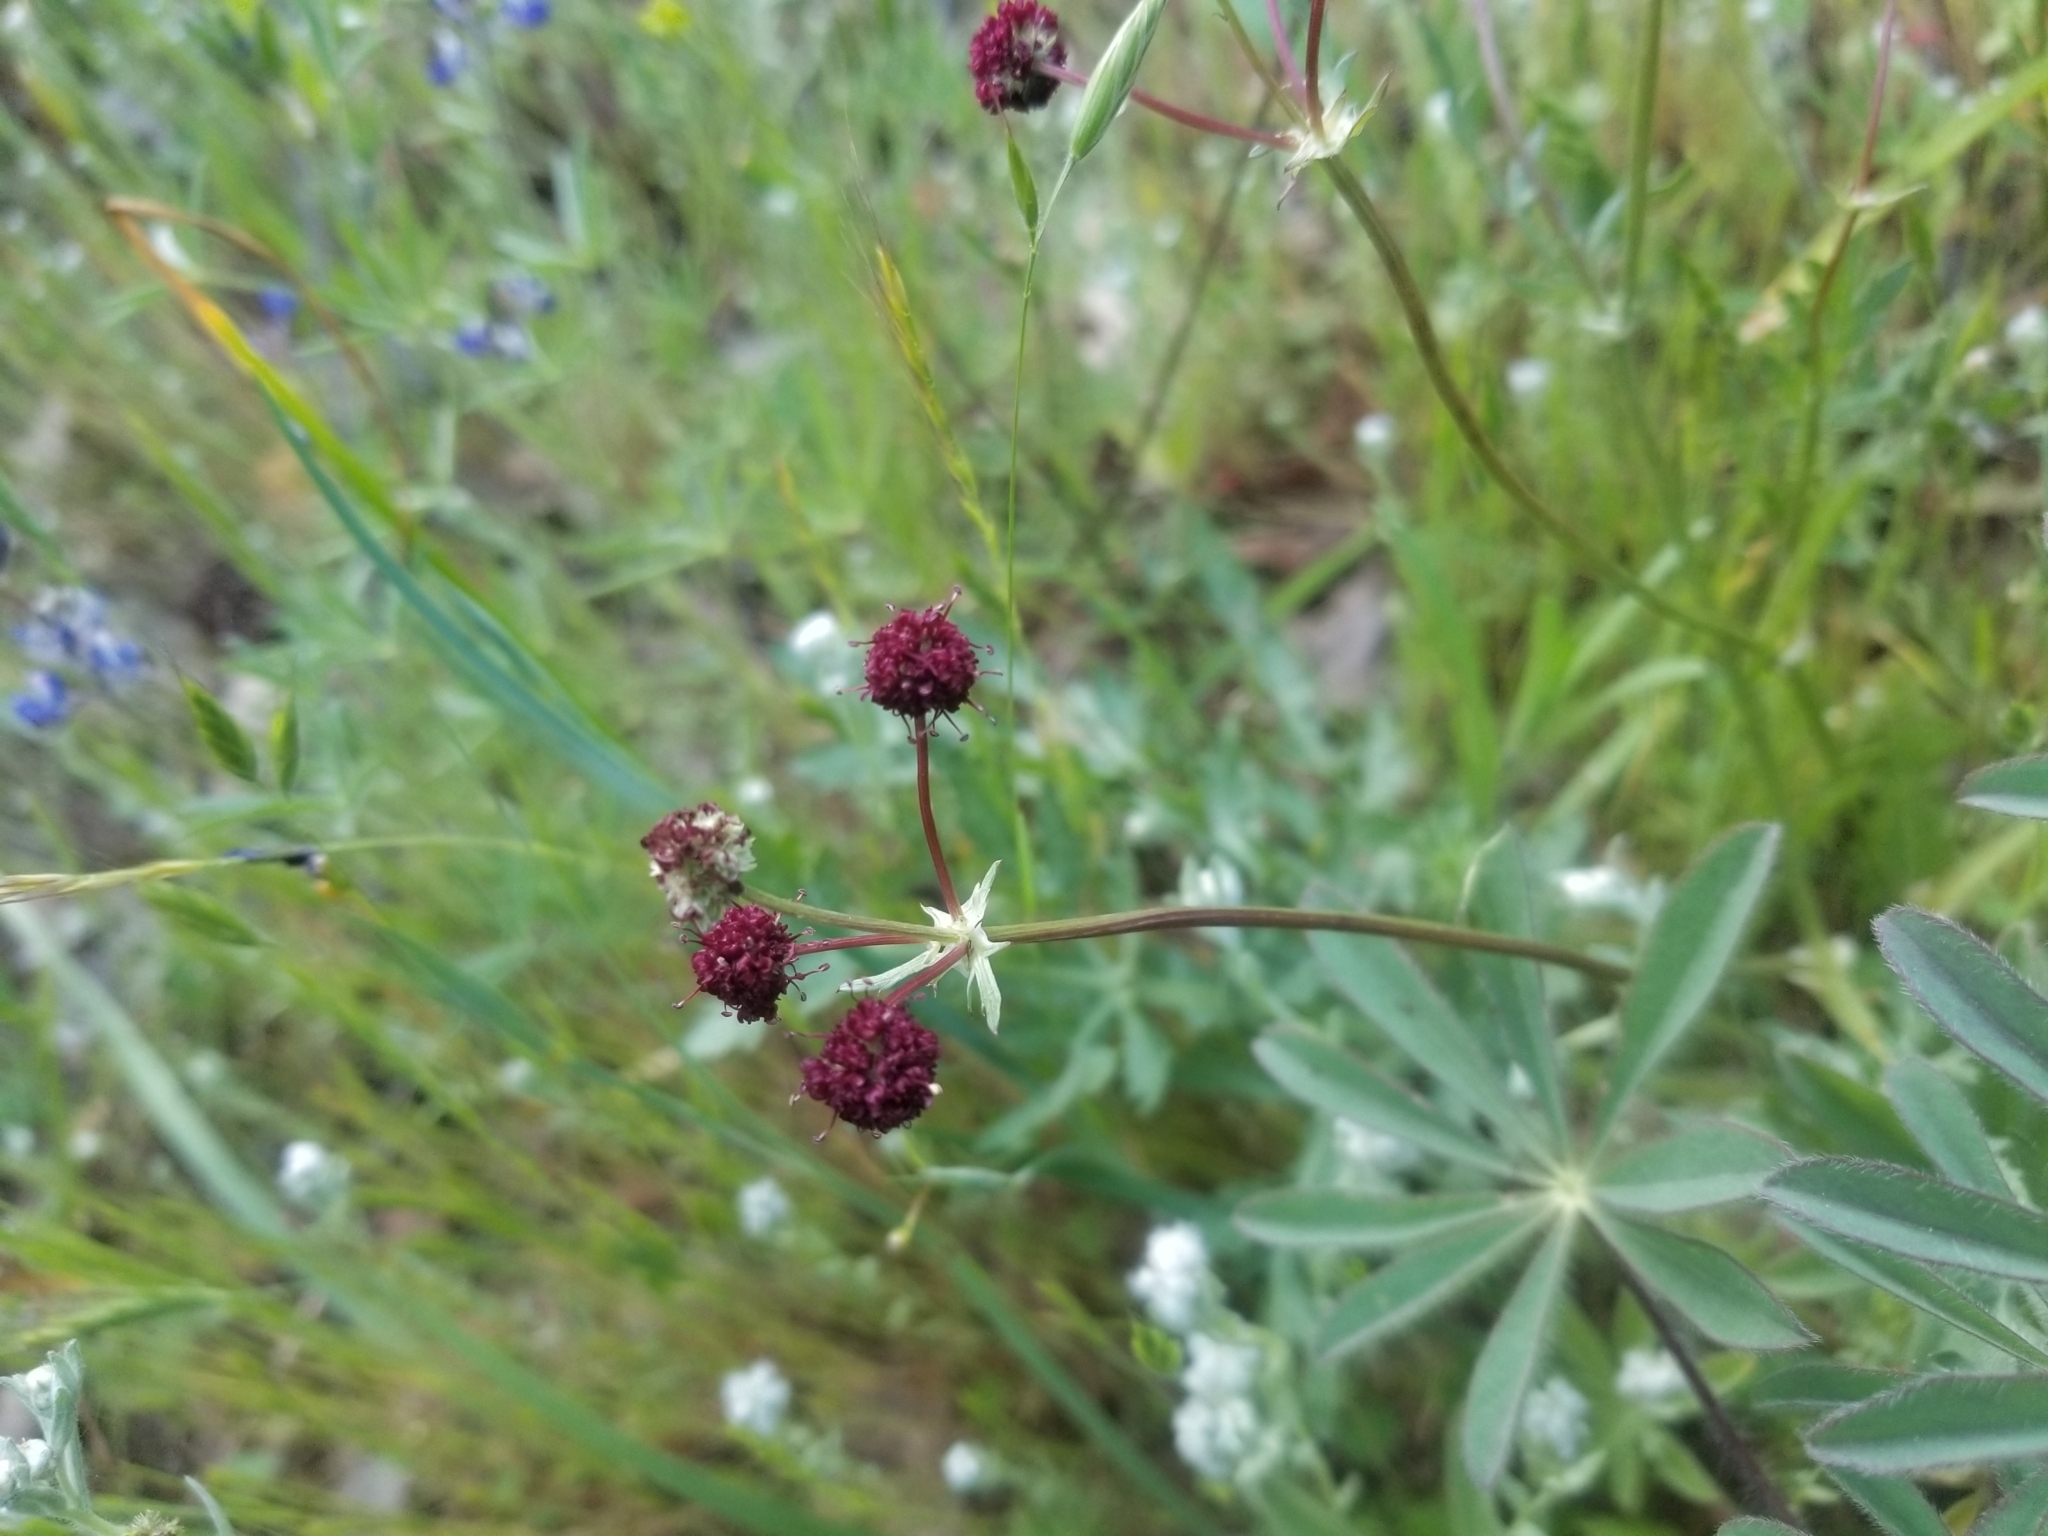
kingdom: Plantae
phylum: Tracheophyta
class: Magnoliopsida
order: Apiales
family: Apiaceae
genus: Sanicula
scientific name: Sanicula bipinnatifida
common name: Shoe-buttons
